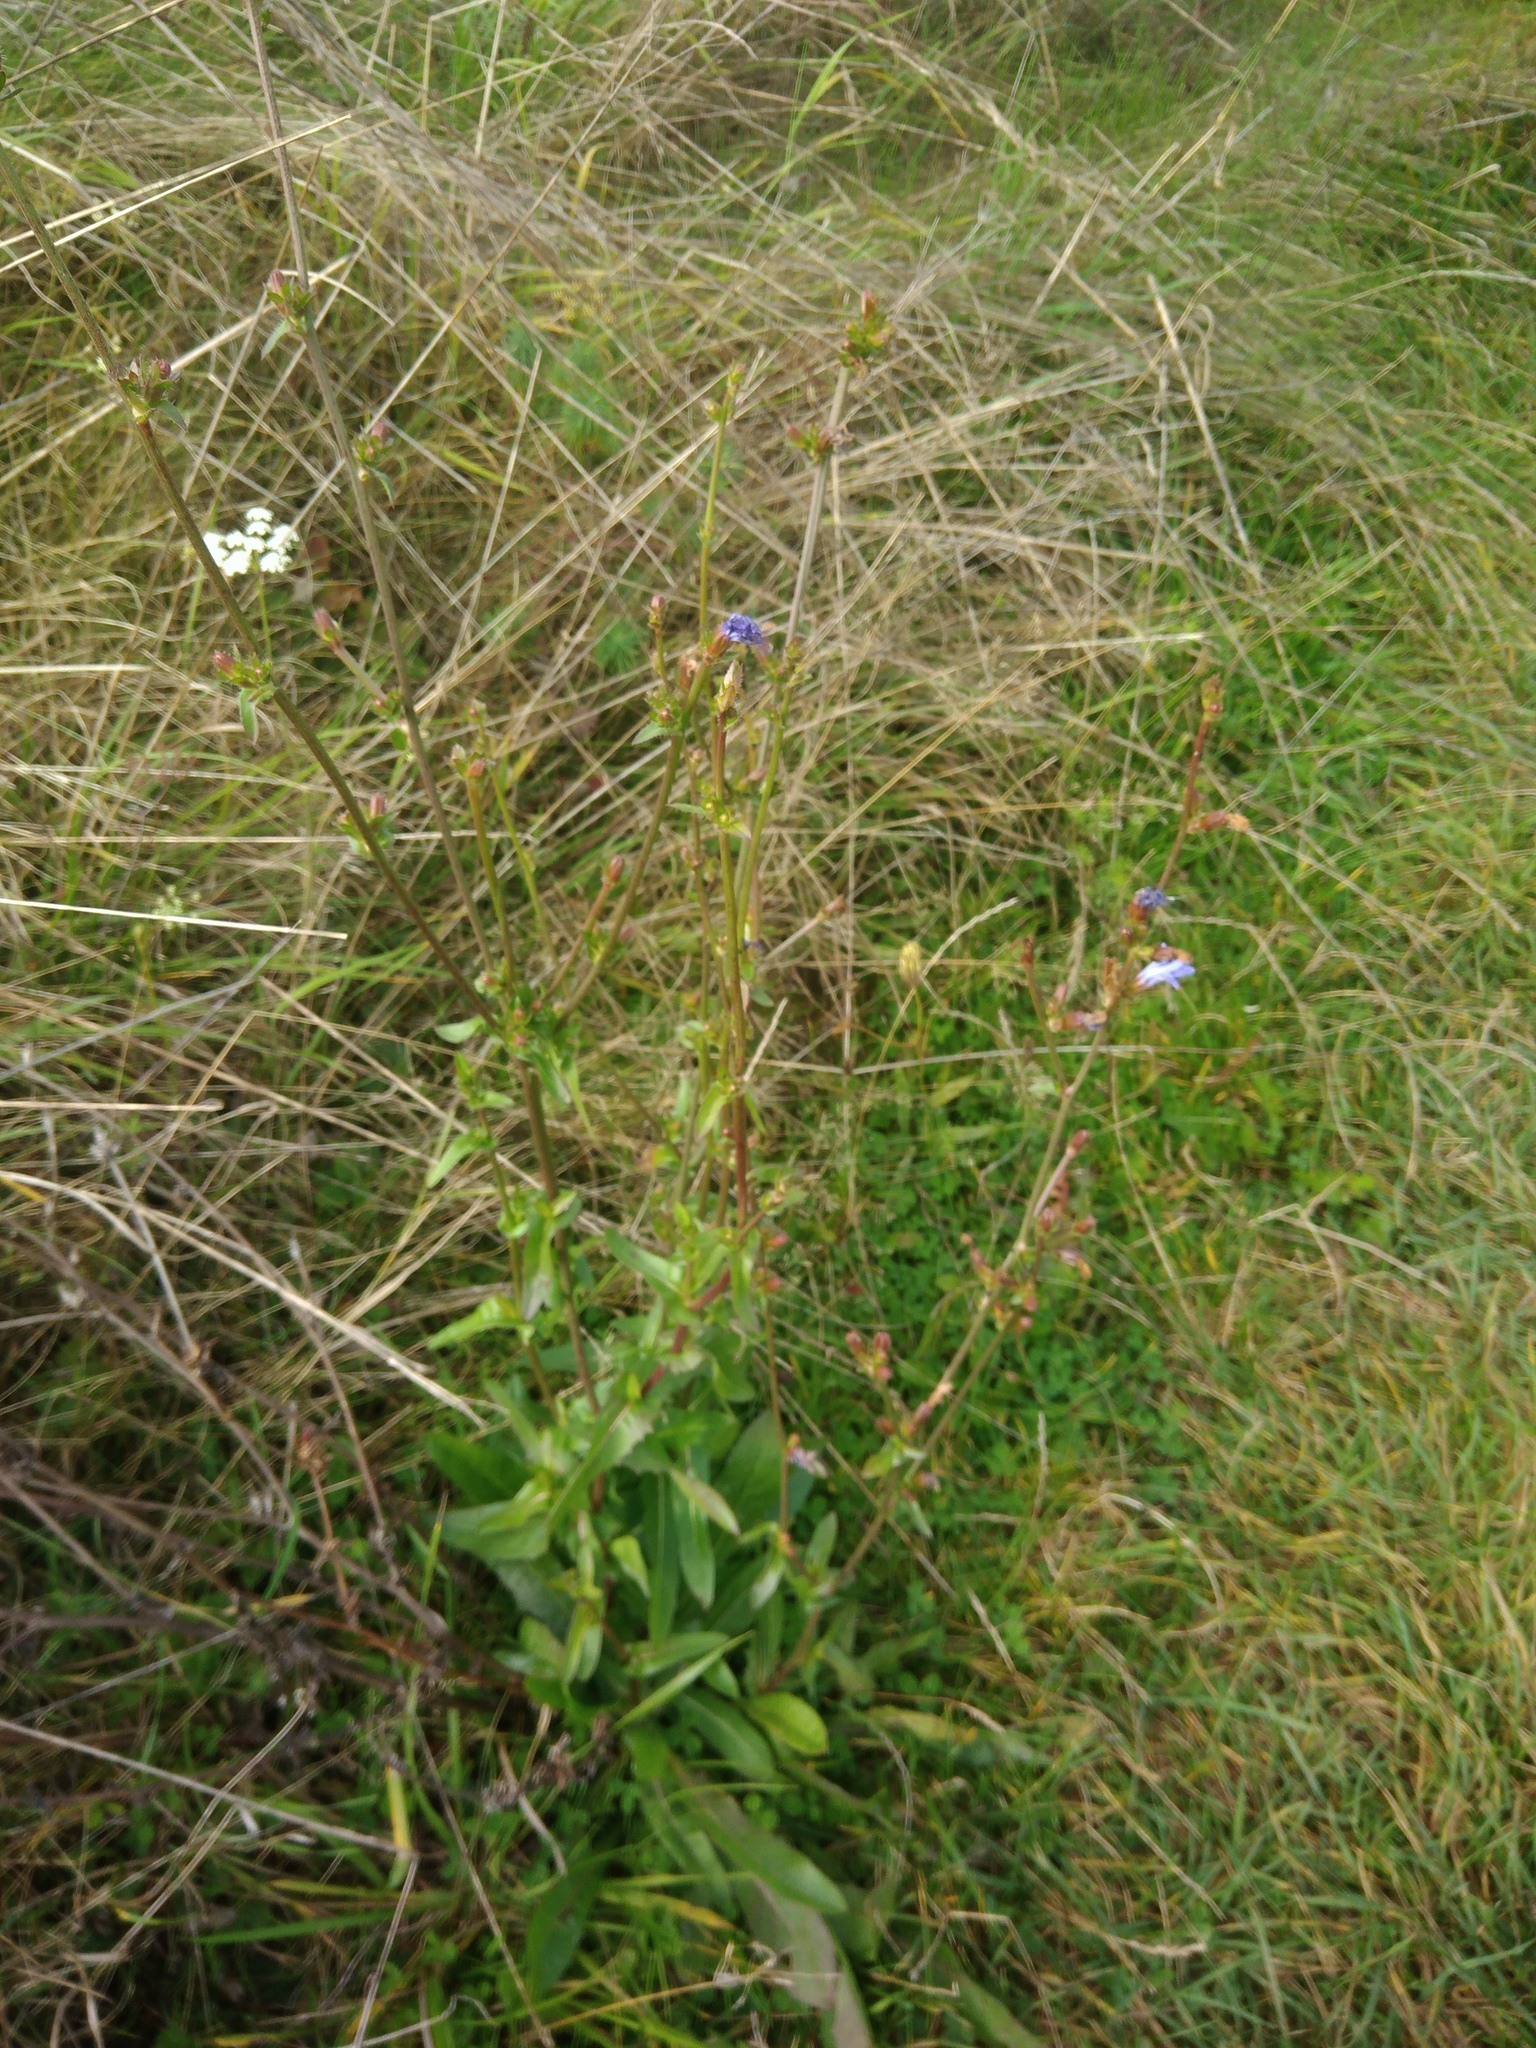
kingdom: Plantae
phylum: Tracheophyta
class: Magnoliopsida
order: Asterales
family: Asteraceae
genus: Cichorium
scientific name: Cichorium intybus
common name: Chicory
